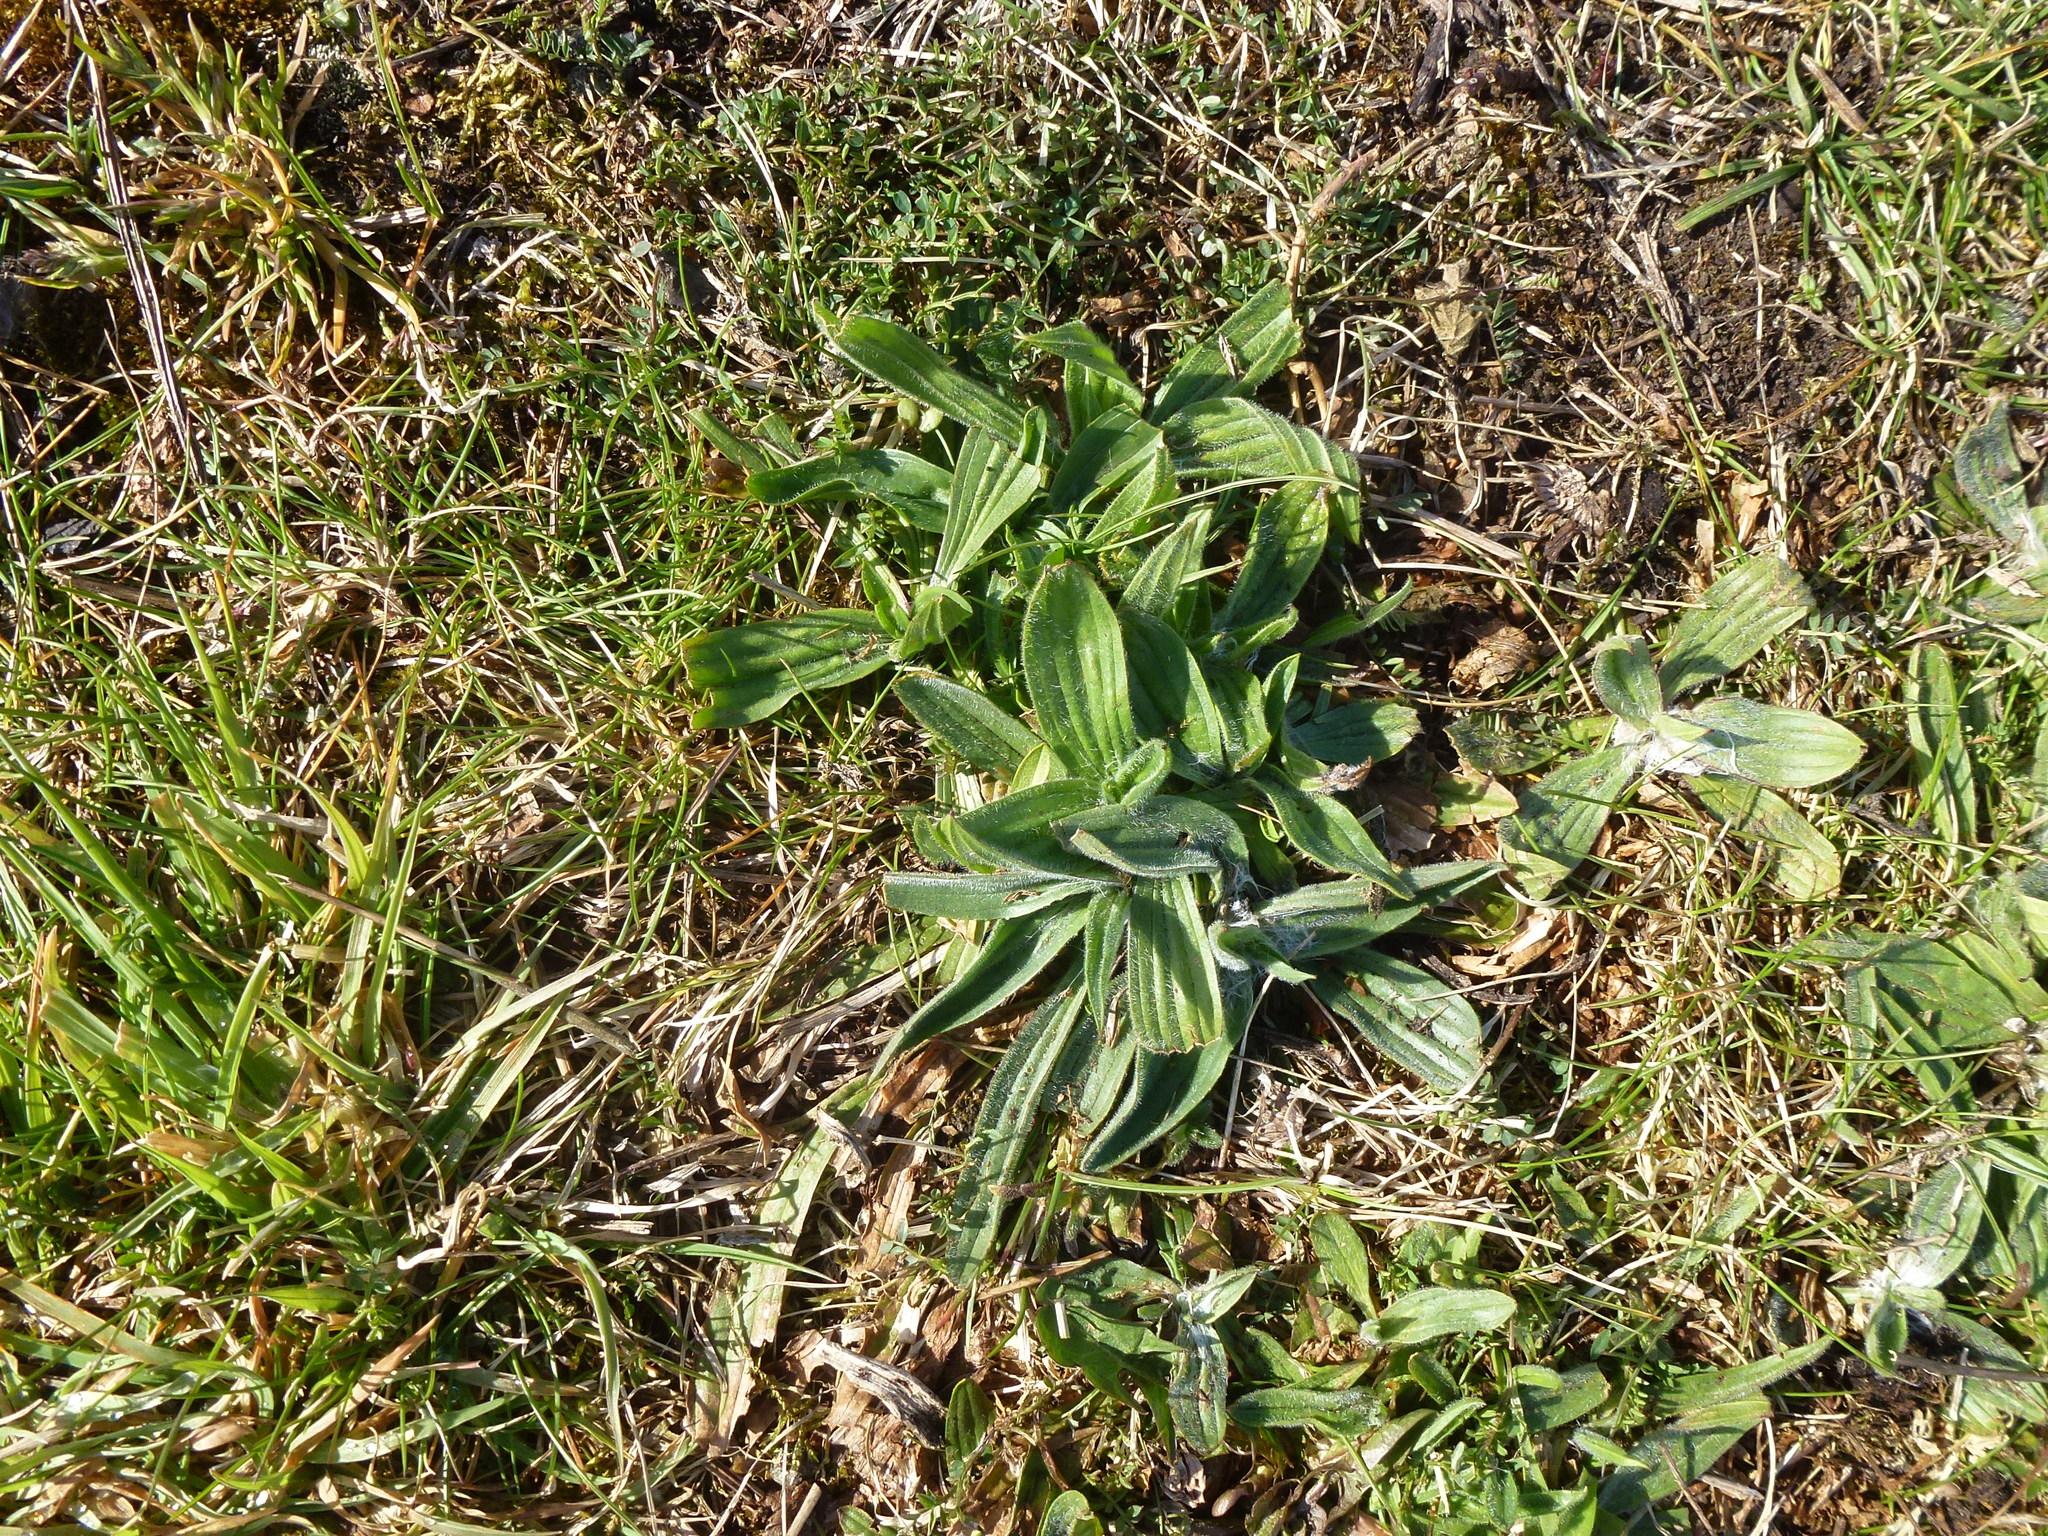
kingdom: Plantae
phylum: Tracheophyta
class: Magnoliopsida
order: Lamiales
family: Plantaginaceae
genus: Plantago
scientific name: Plantago lanceolata
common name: Ribwort plantain
